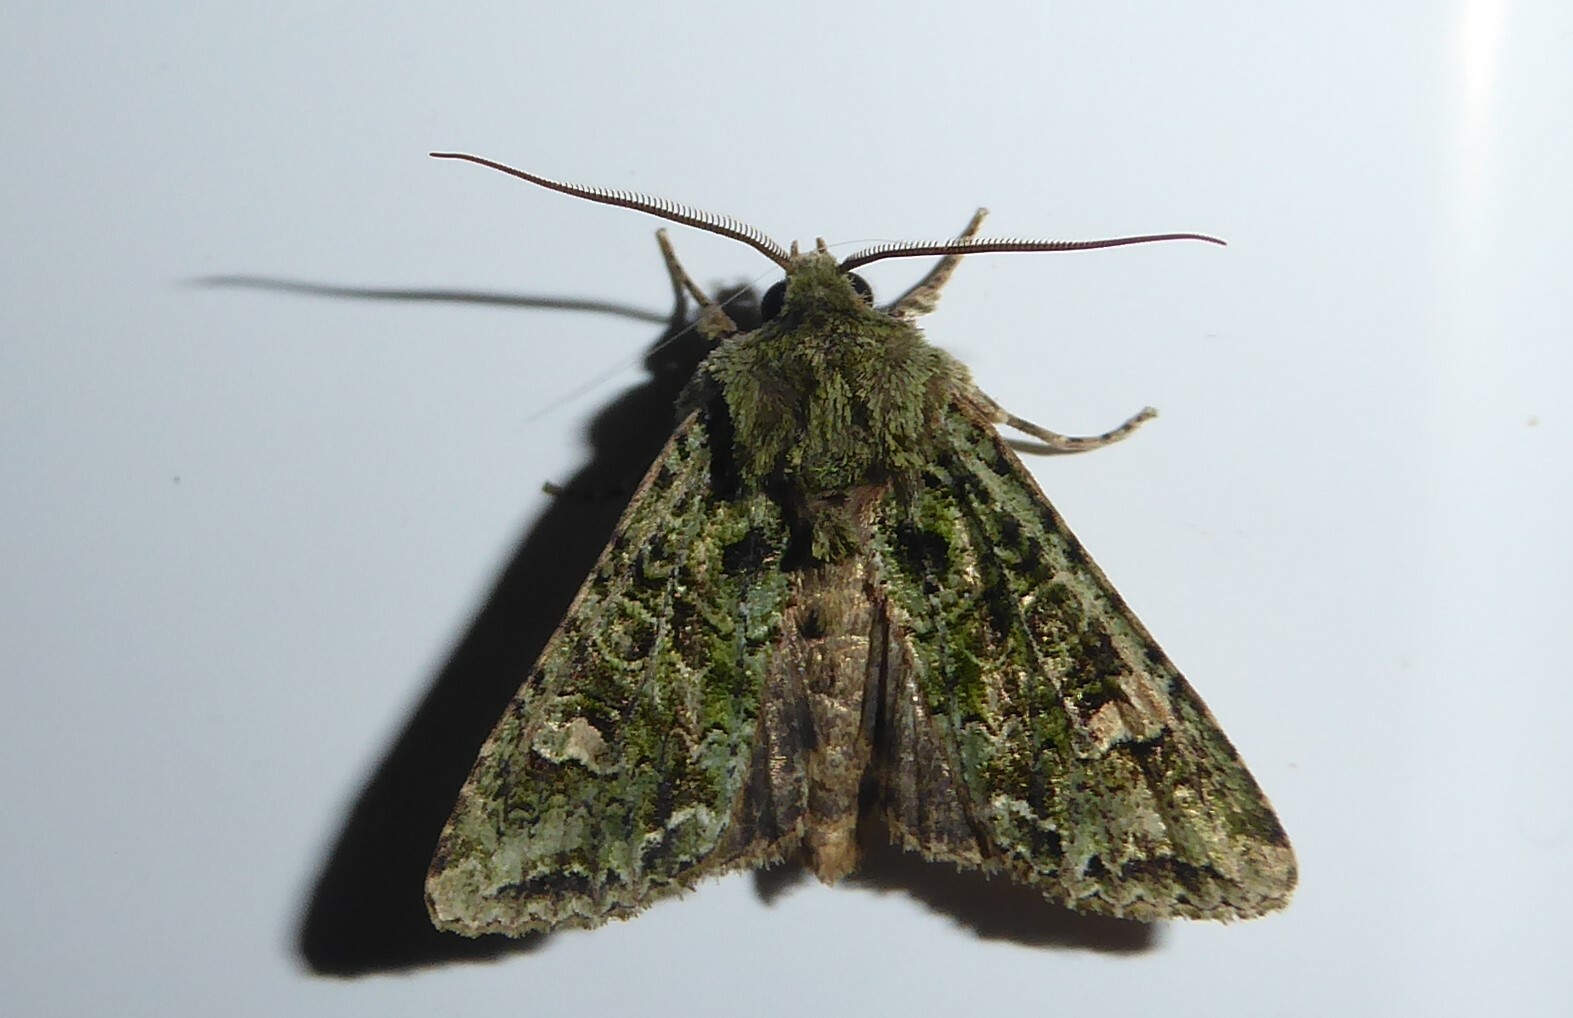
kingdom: Animalia
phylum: Arthropoda
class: Insecta
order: Lepidoptera
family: Noctuidae
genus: Ichneutica
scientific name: Ichneutica
